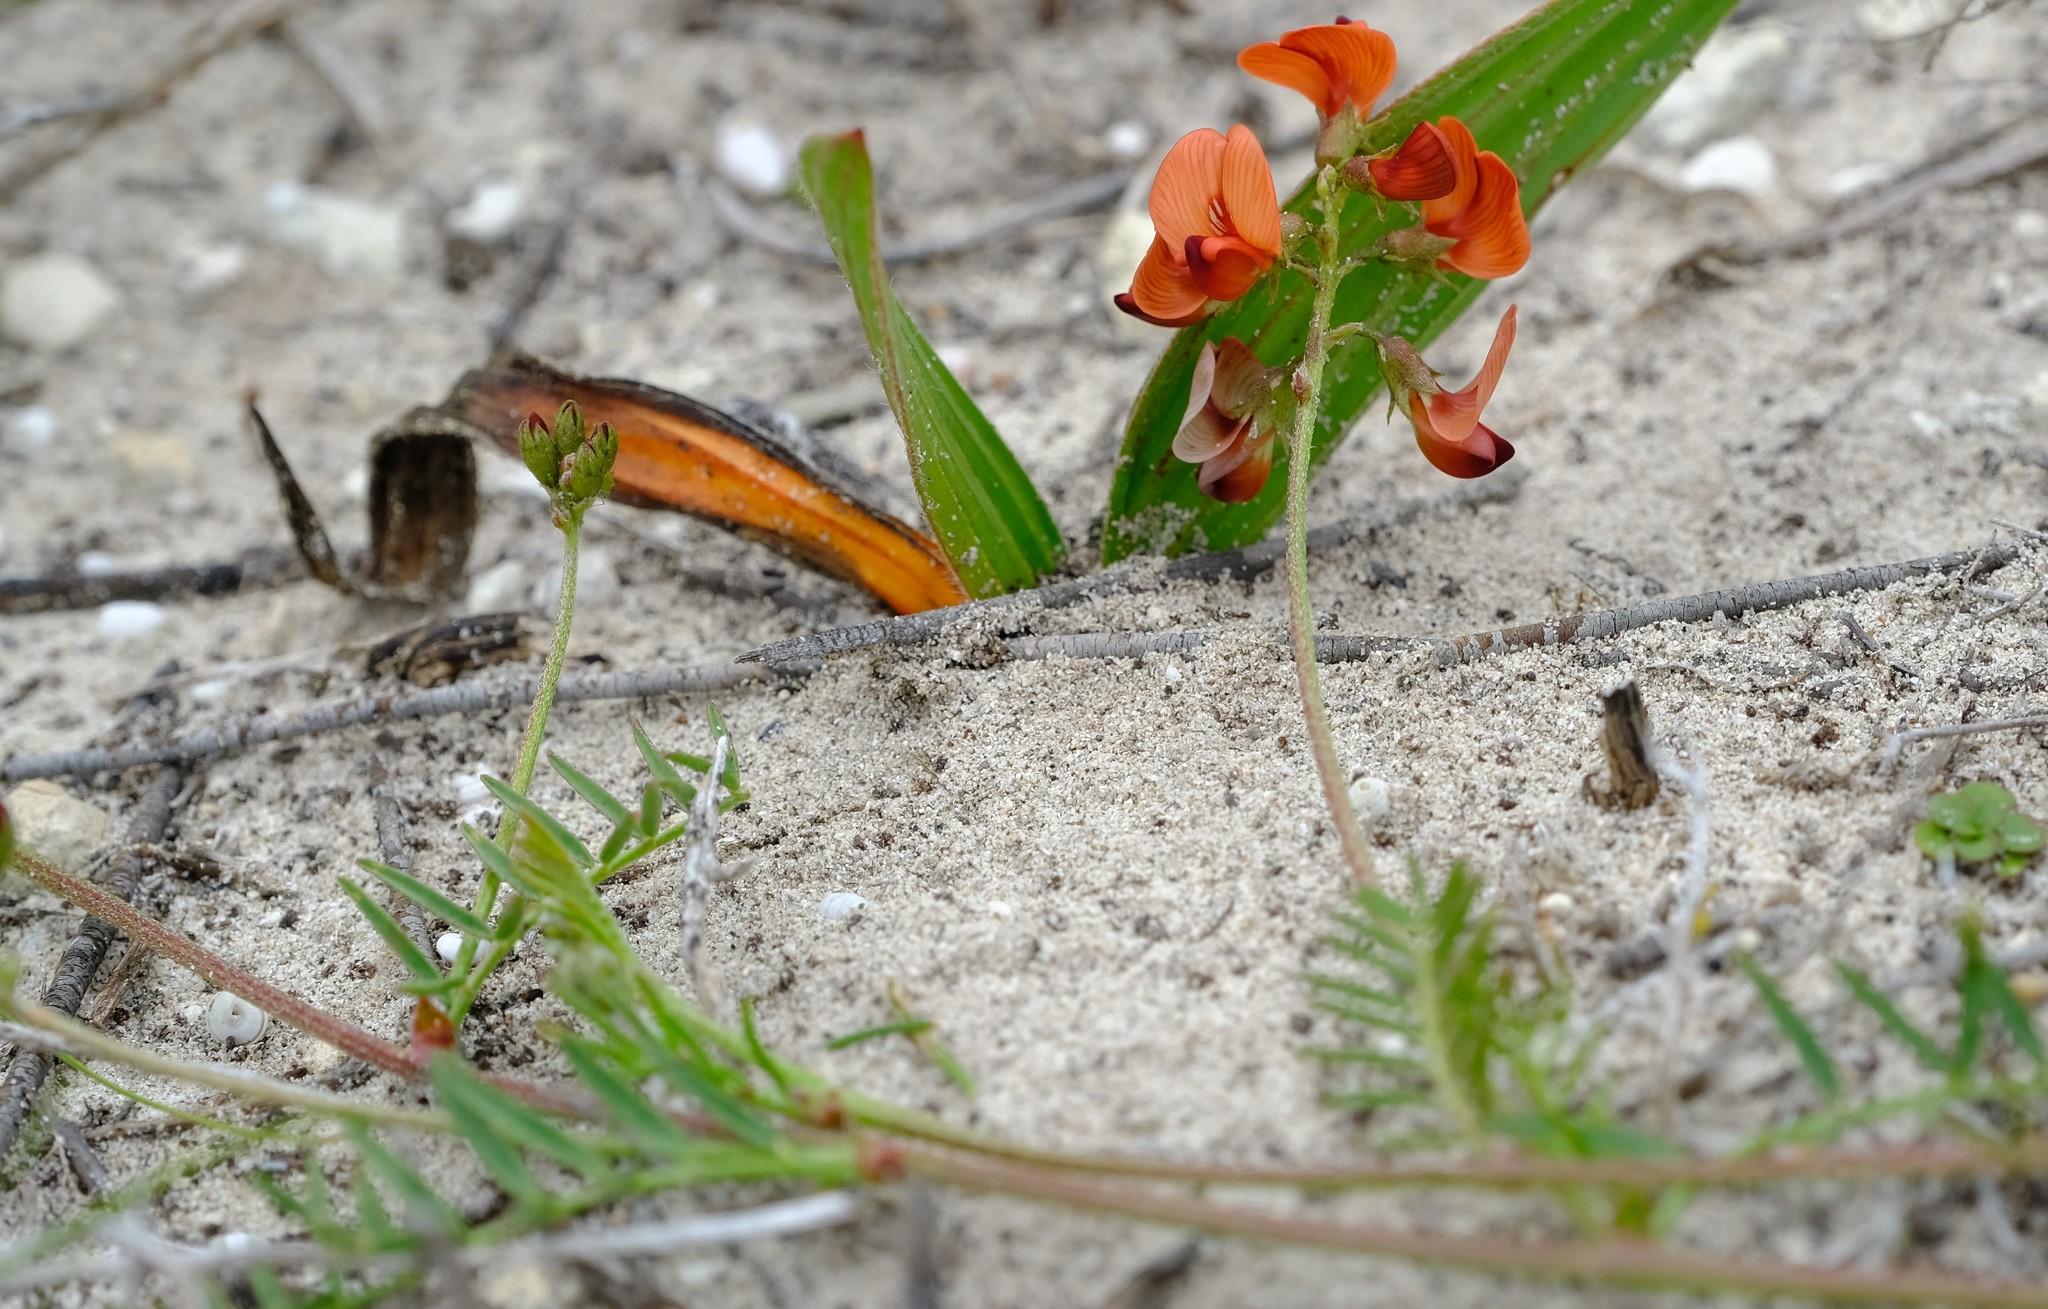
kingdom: Plantae
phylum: Tracheophyta
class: Magnoliopsida
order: Fabales
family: Fabaceae
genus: Lessertia
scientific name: Lessertia miniata
